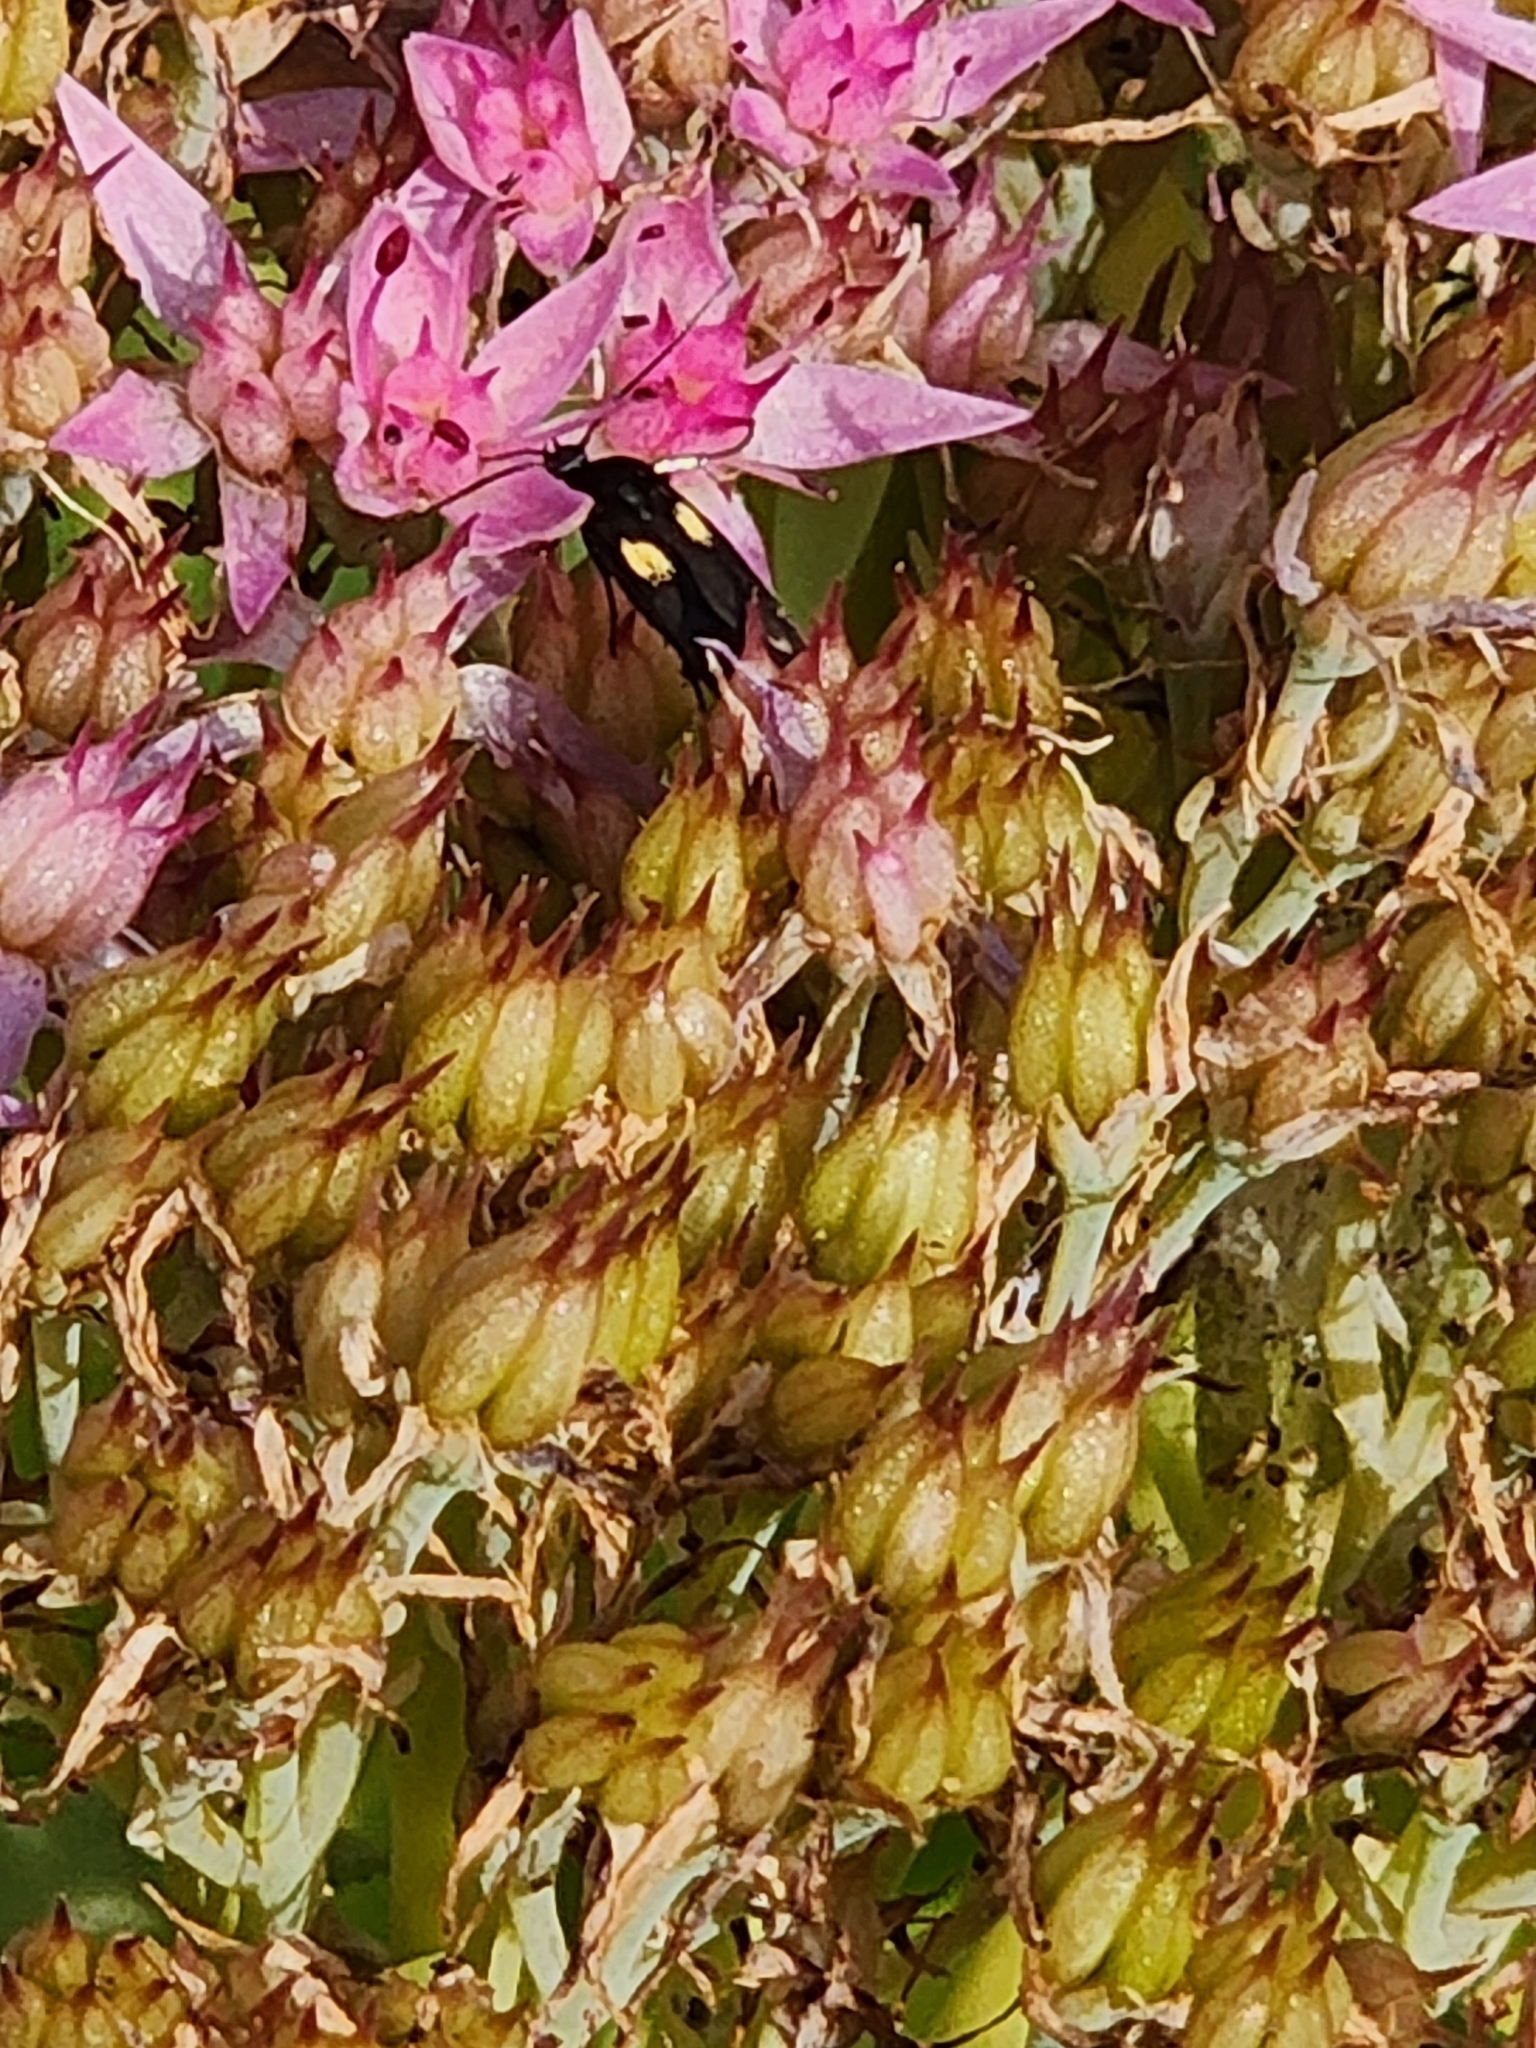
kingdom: Animalia
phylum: Arthropoda
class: Insecta
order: Lepidoptera
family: Scythrididae
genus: Scythris
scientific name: Scythris sinensis
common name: Kentish owlet
